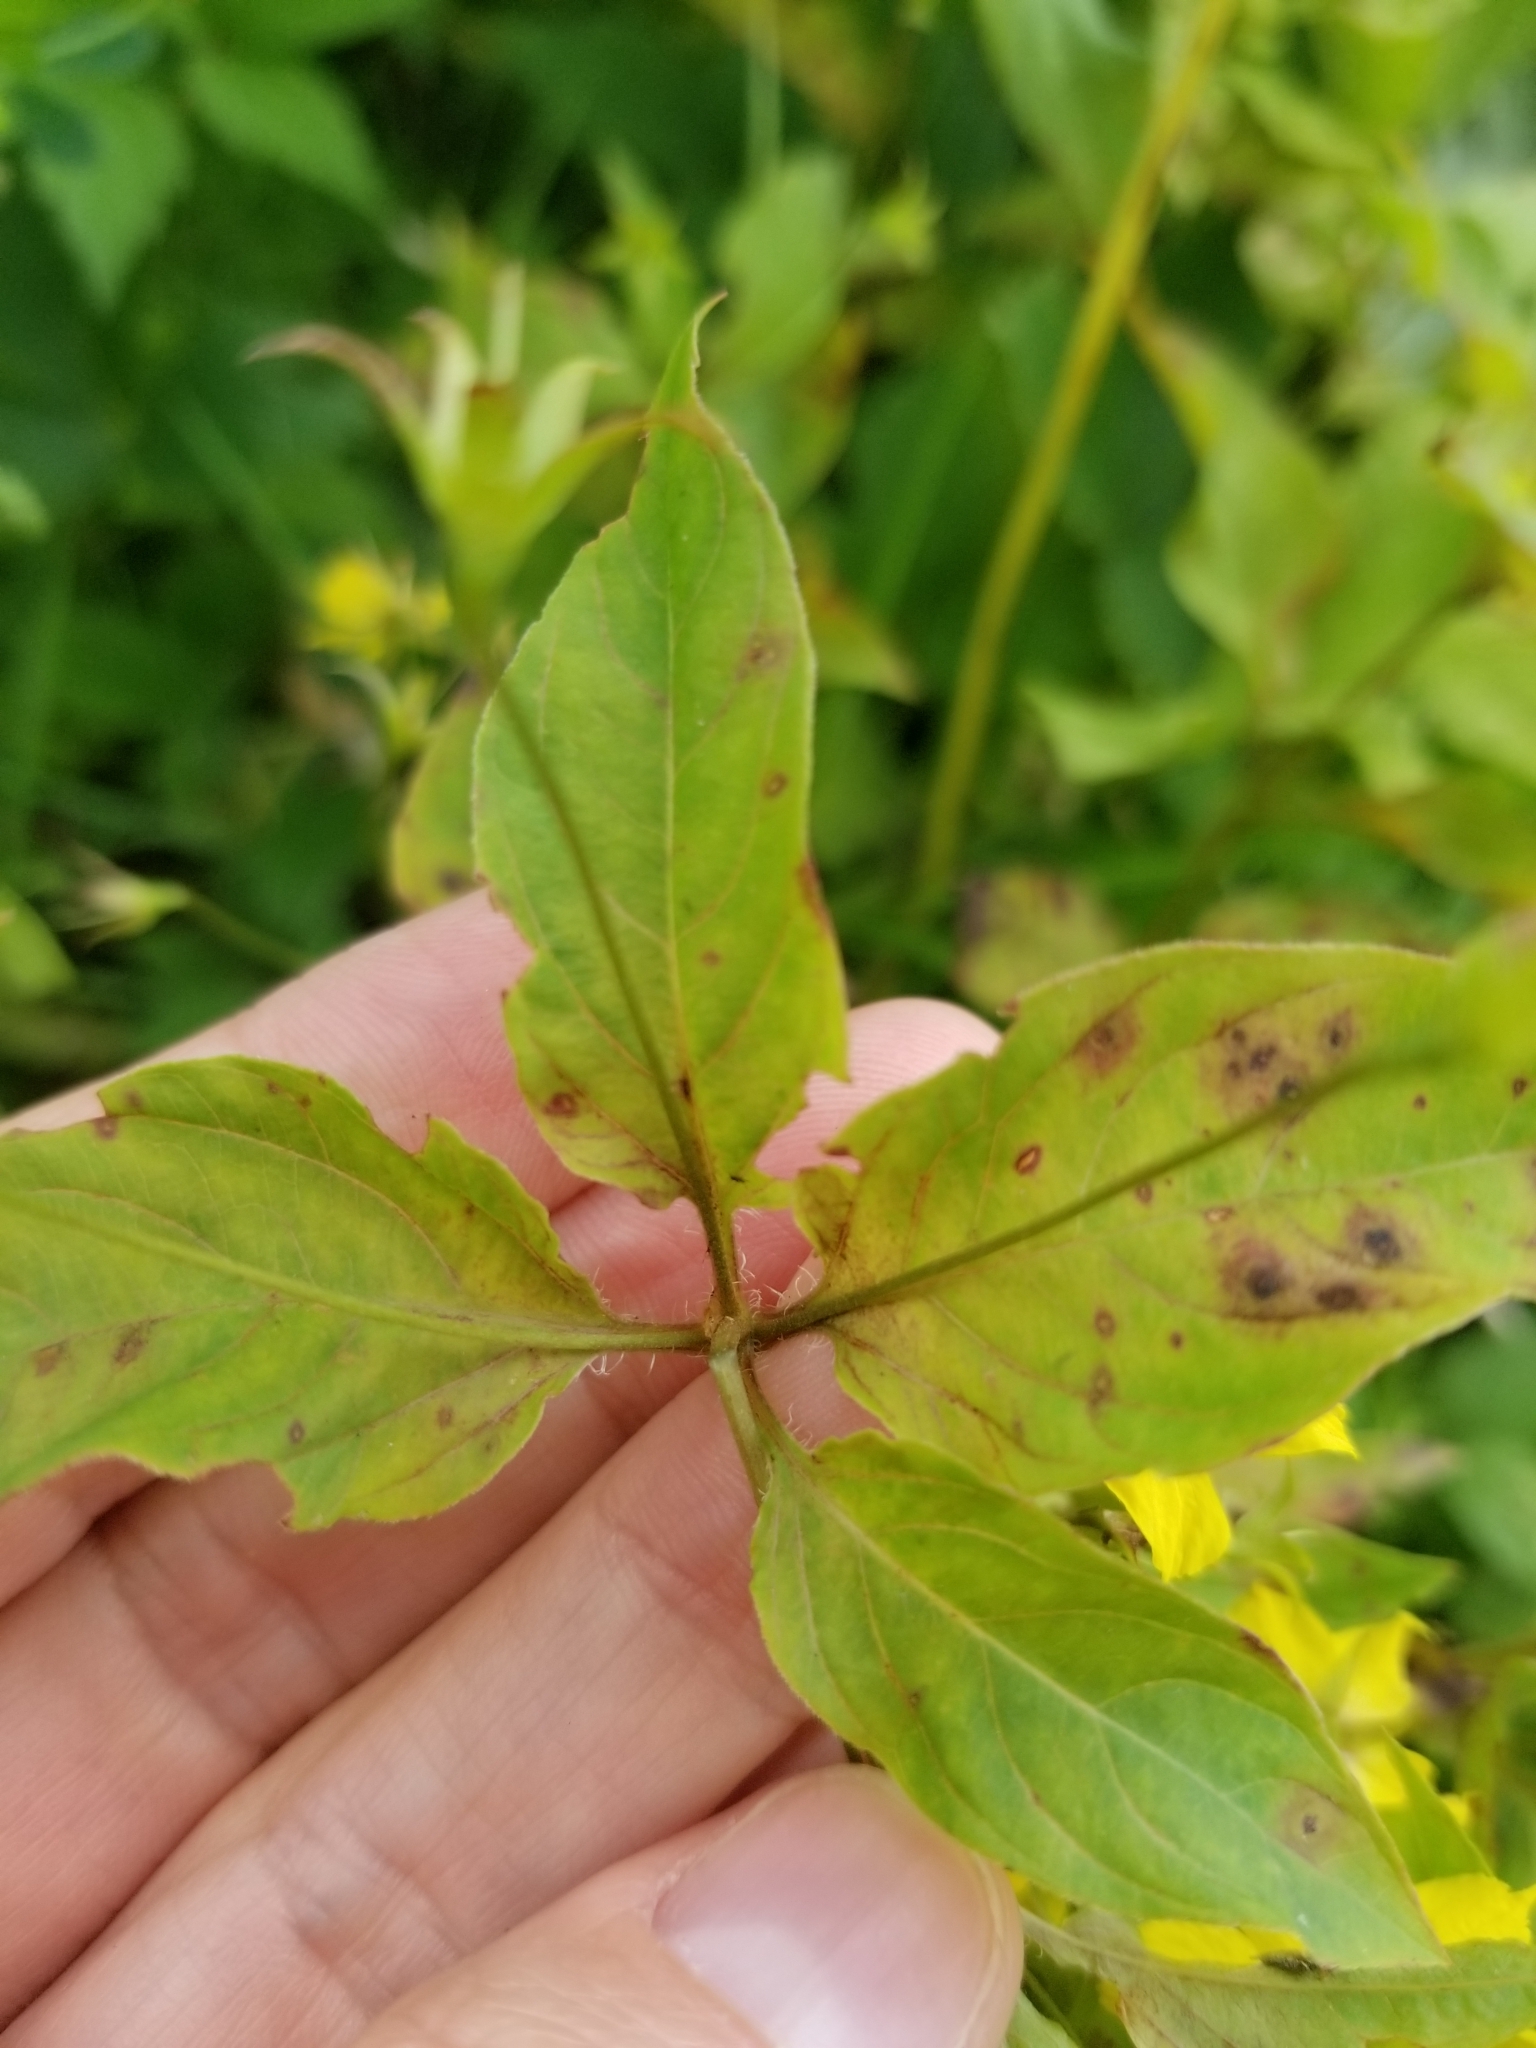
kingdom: Plantae
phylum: Tracheophyta
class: Magnoliopsida
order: Ericales
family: Primulaceae
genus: Lysimachia
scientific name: Lysimachia ciliata
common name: Fringed loosestrife
